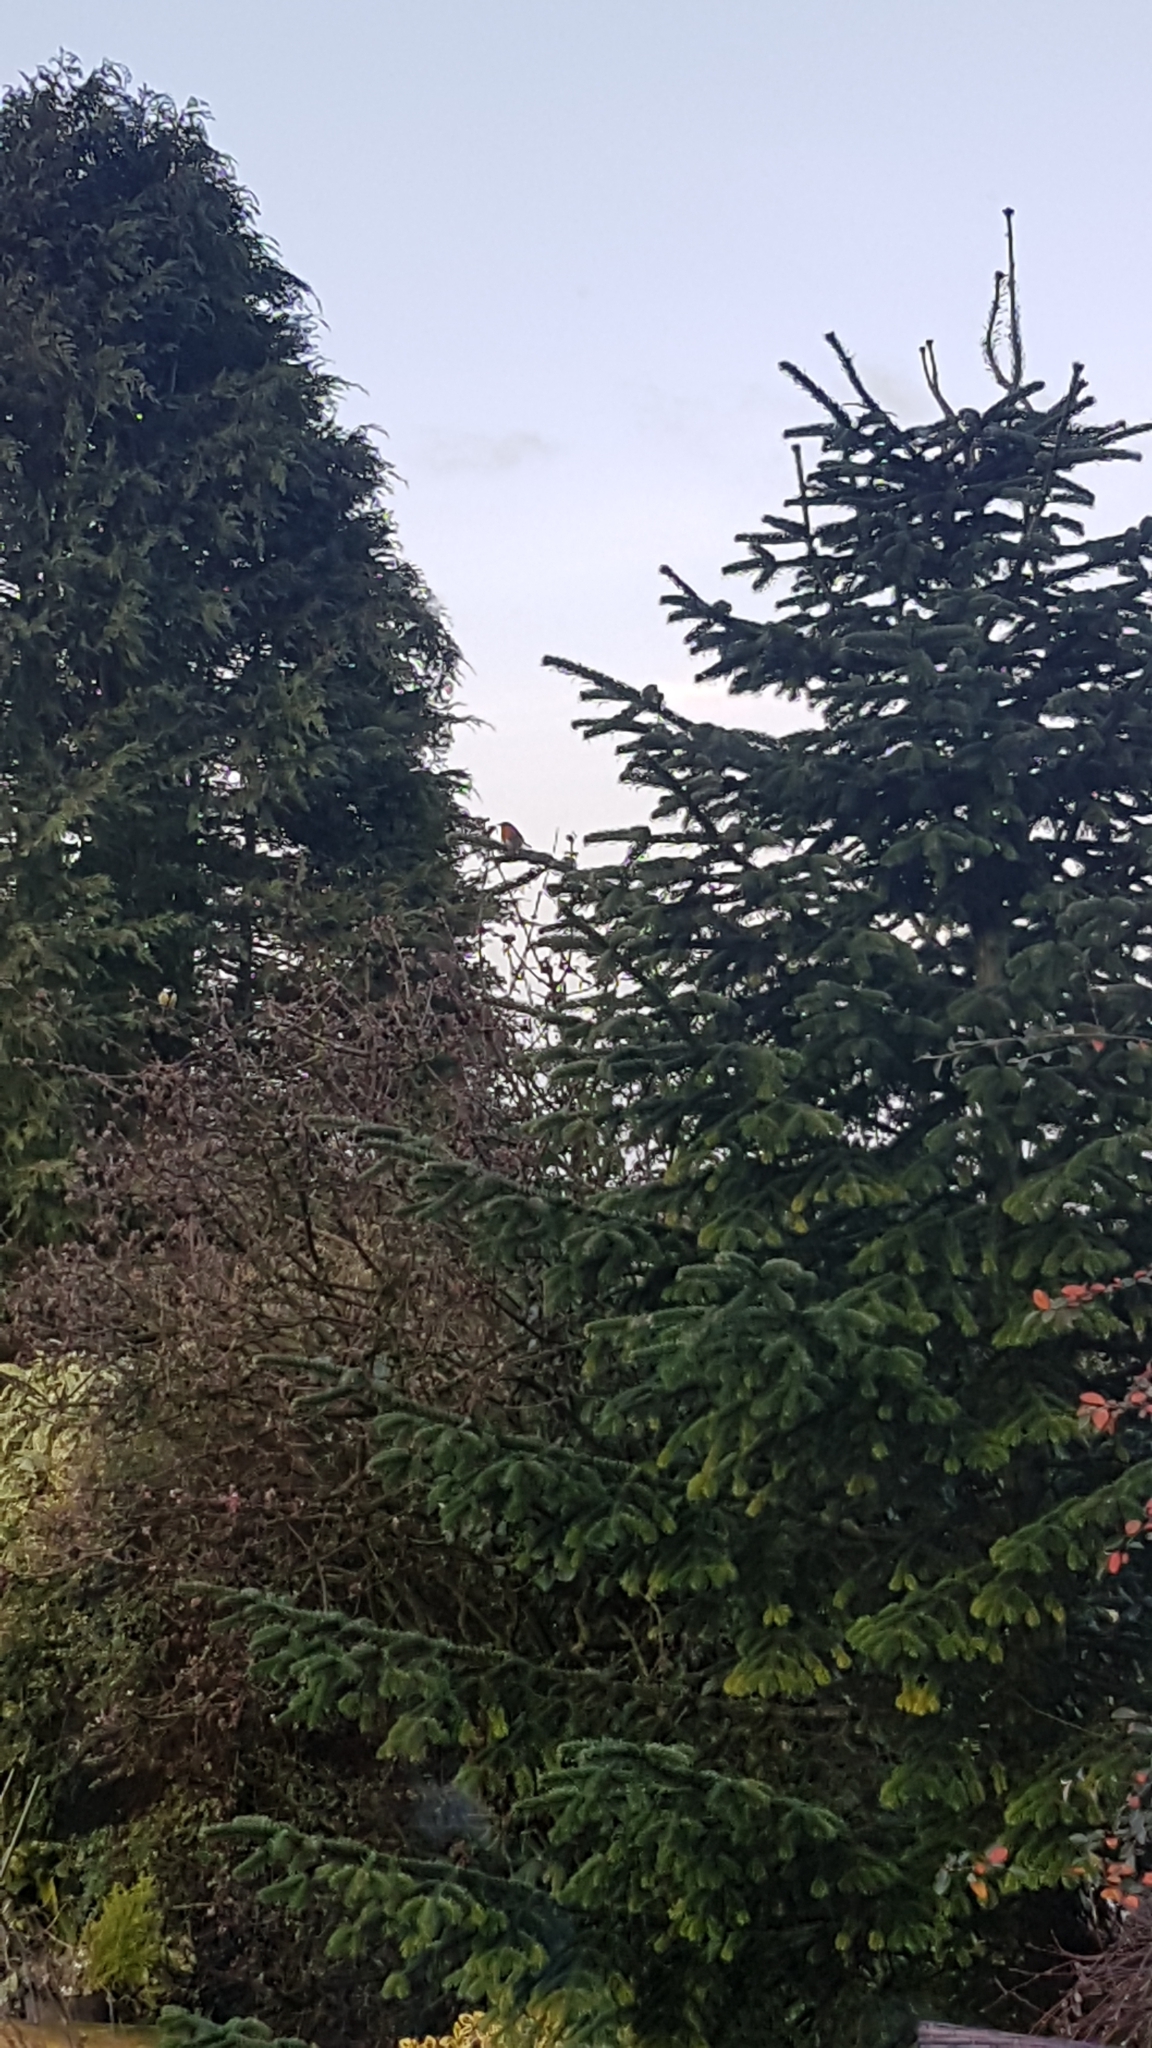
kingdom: Animalia
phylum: Chordata
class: Aves
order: Passeriformes
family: Muscicapidae
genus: Erithacus
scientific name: Erithacus rubecula
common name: European robin
